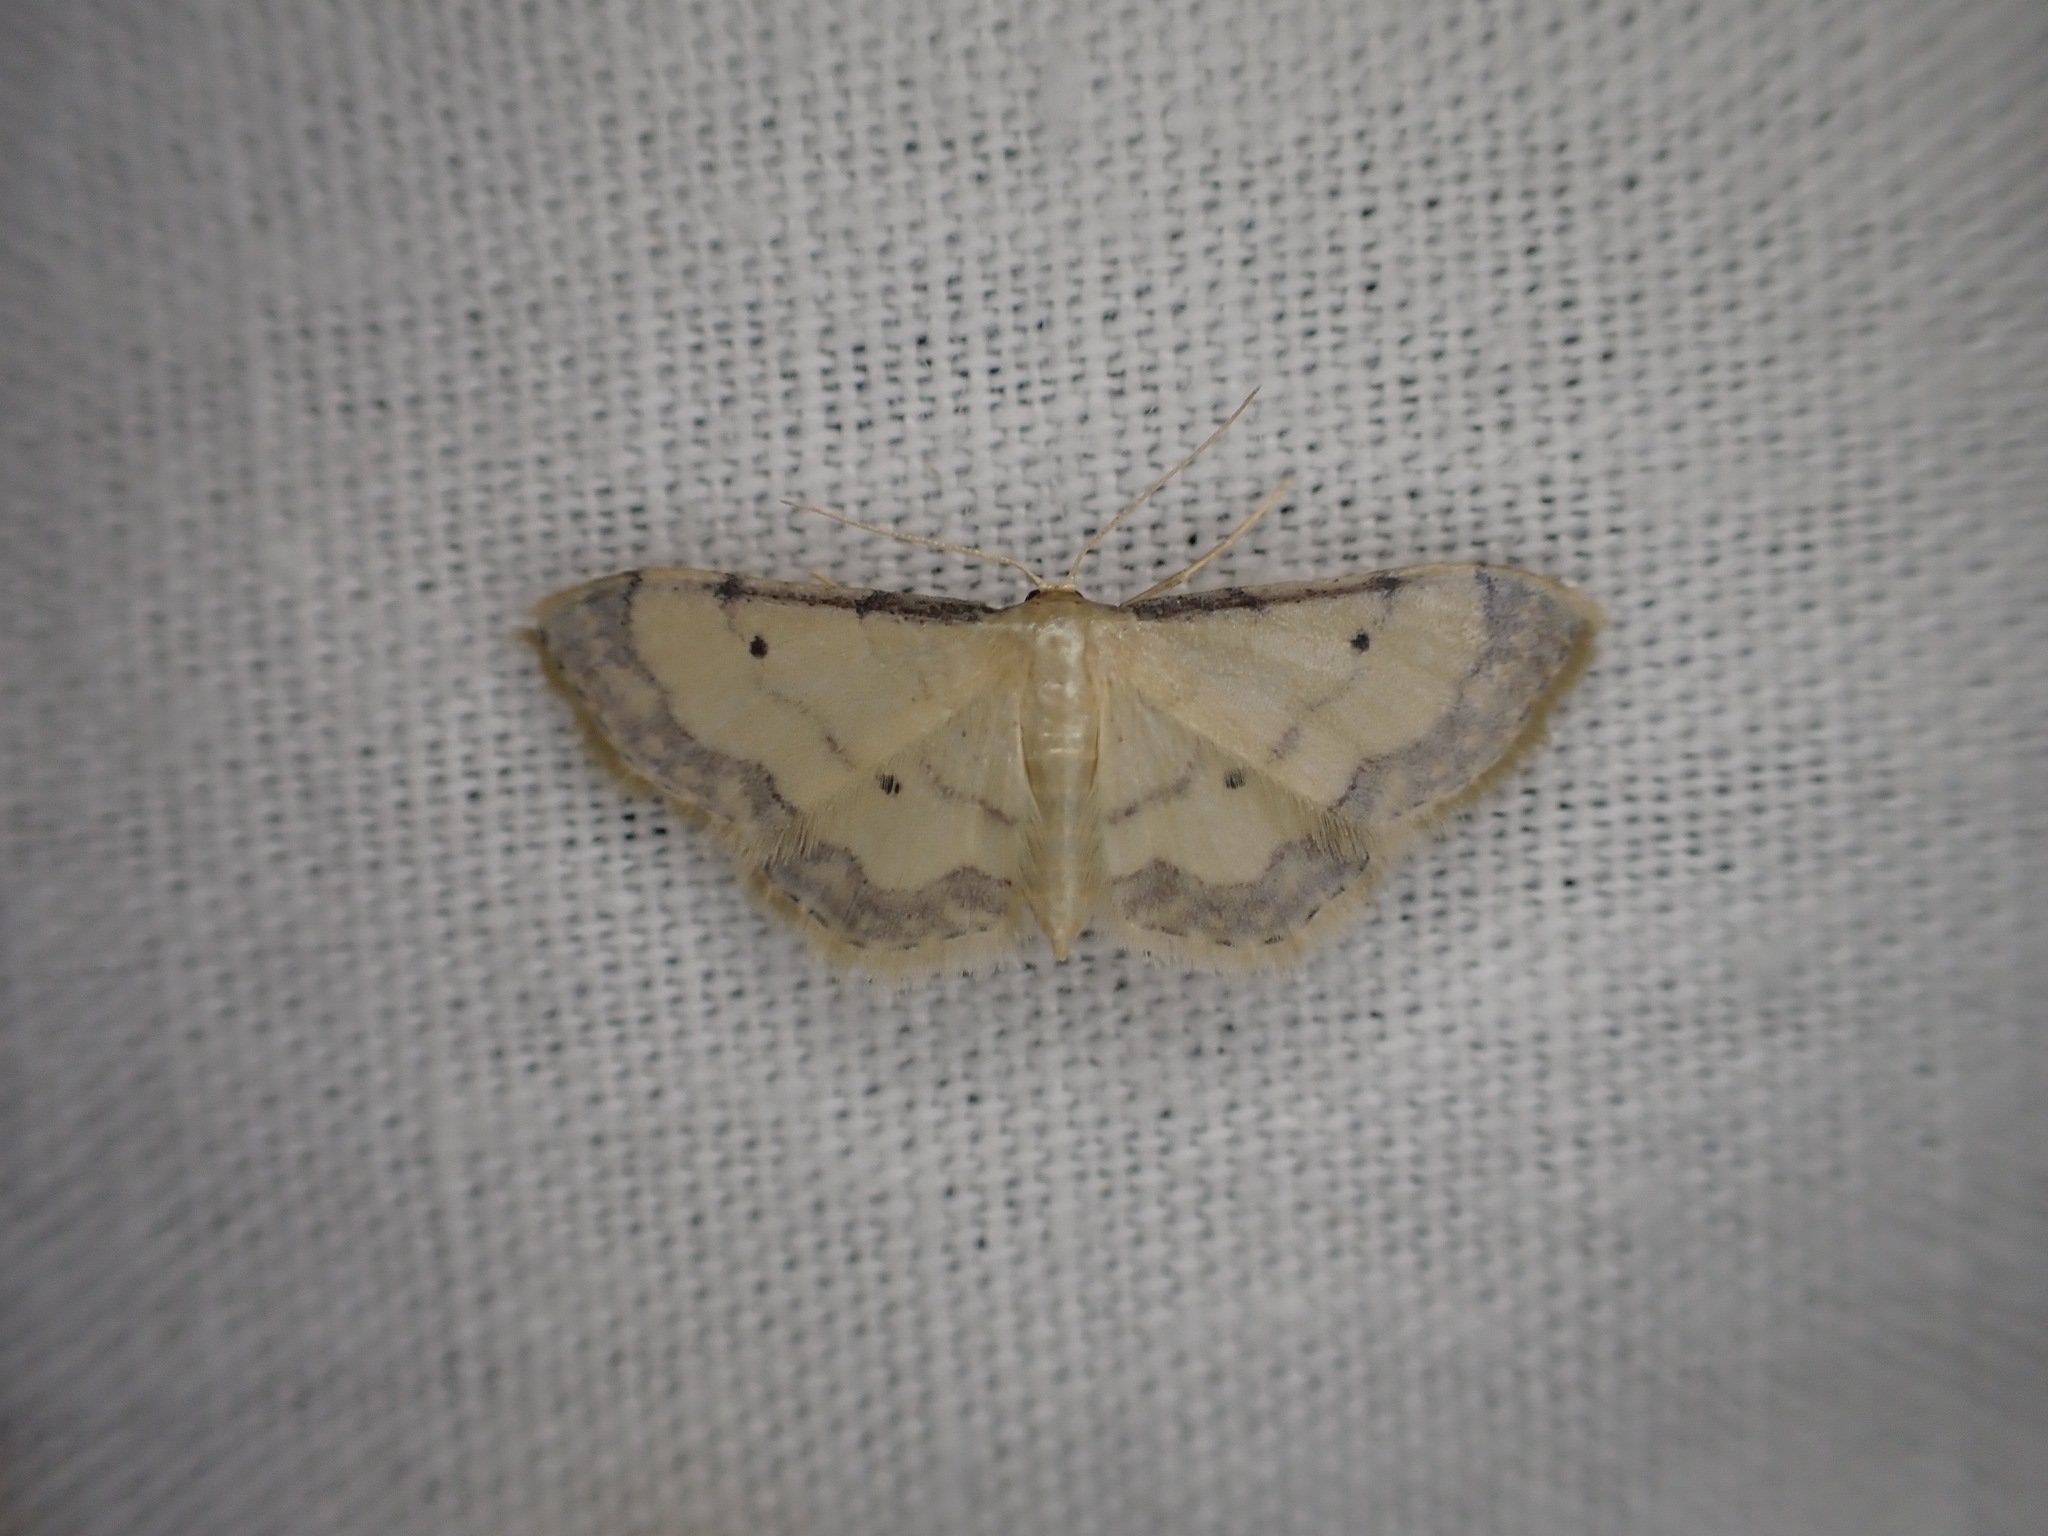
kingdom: Animalia
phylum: Arthropoda
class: Insecta
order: Lepidoptera
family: Geometridae
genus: Idaea
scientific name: Idaea politaria
